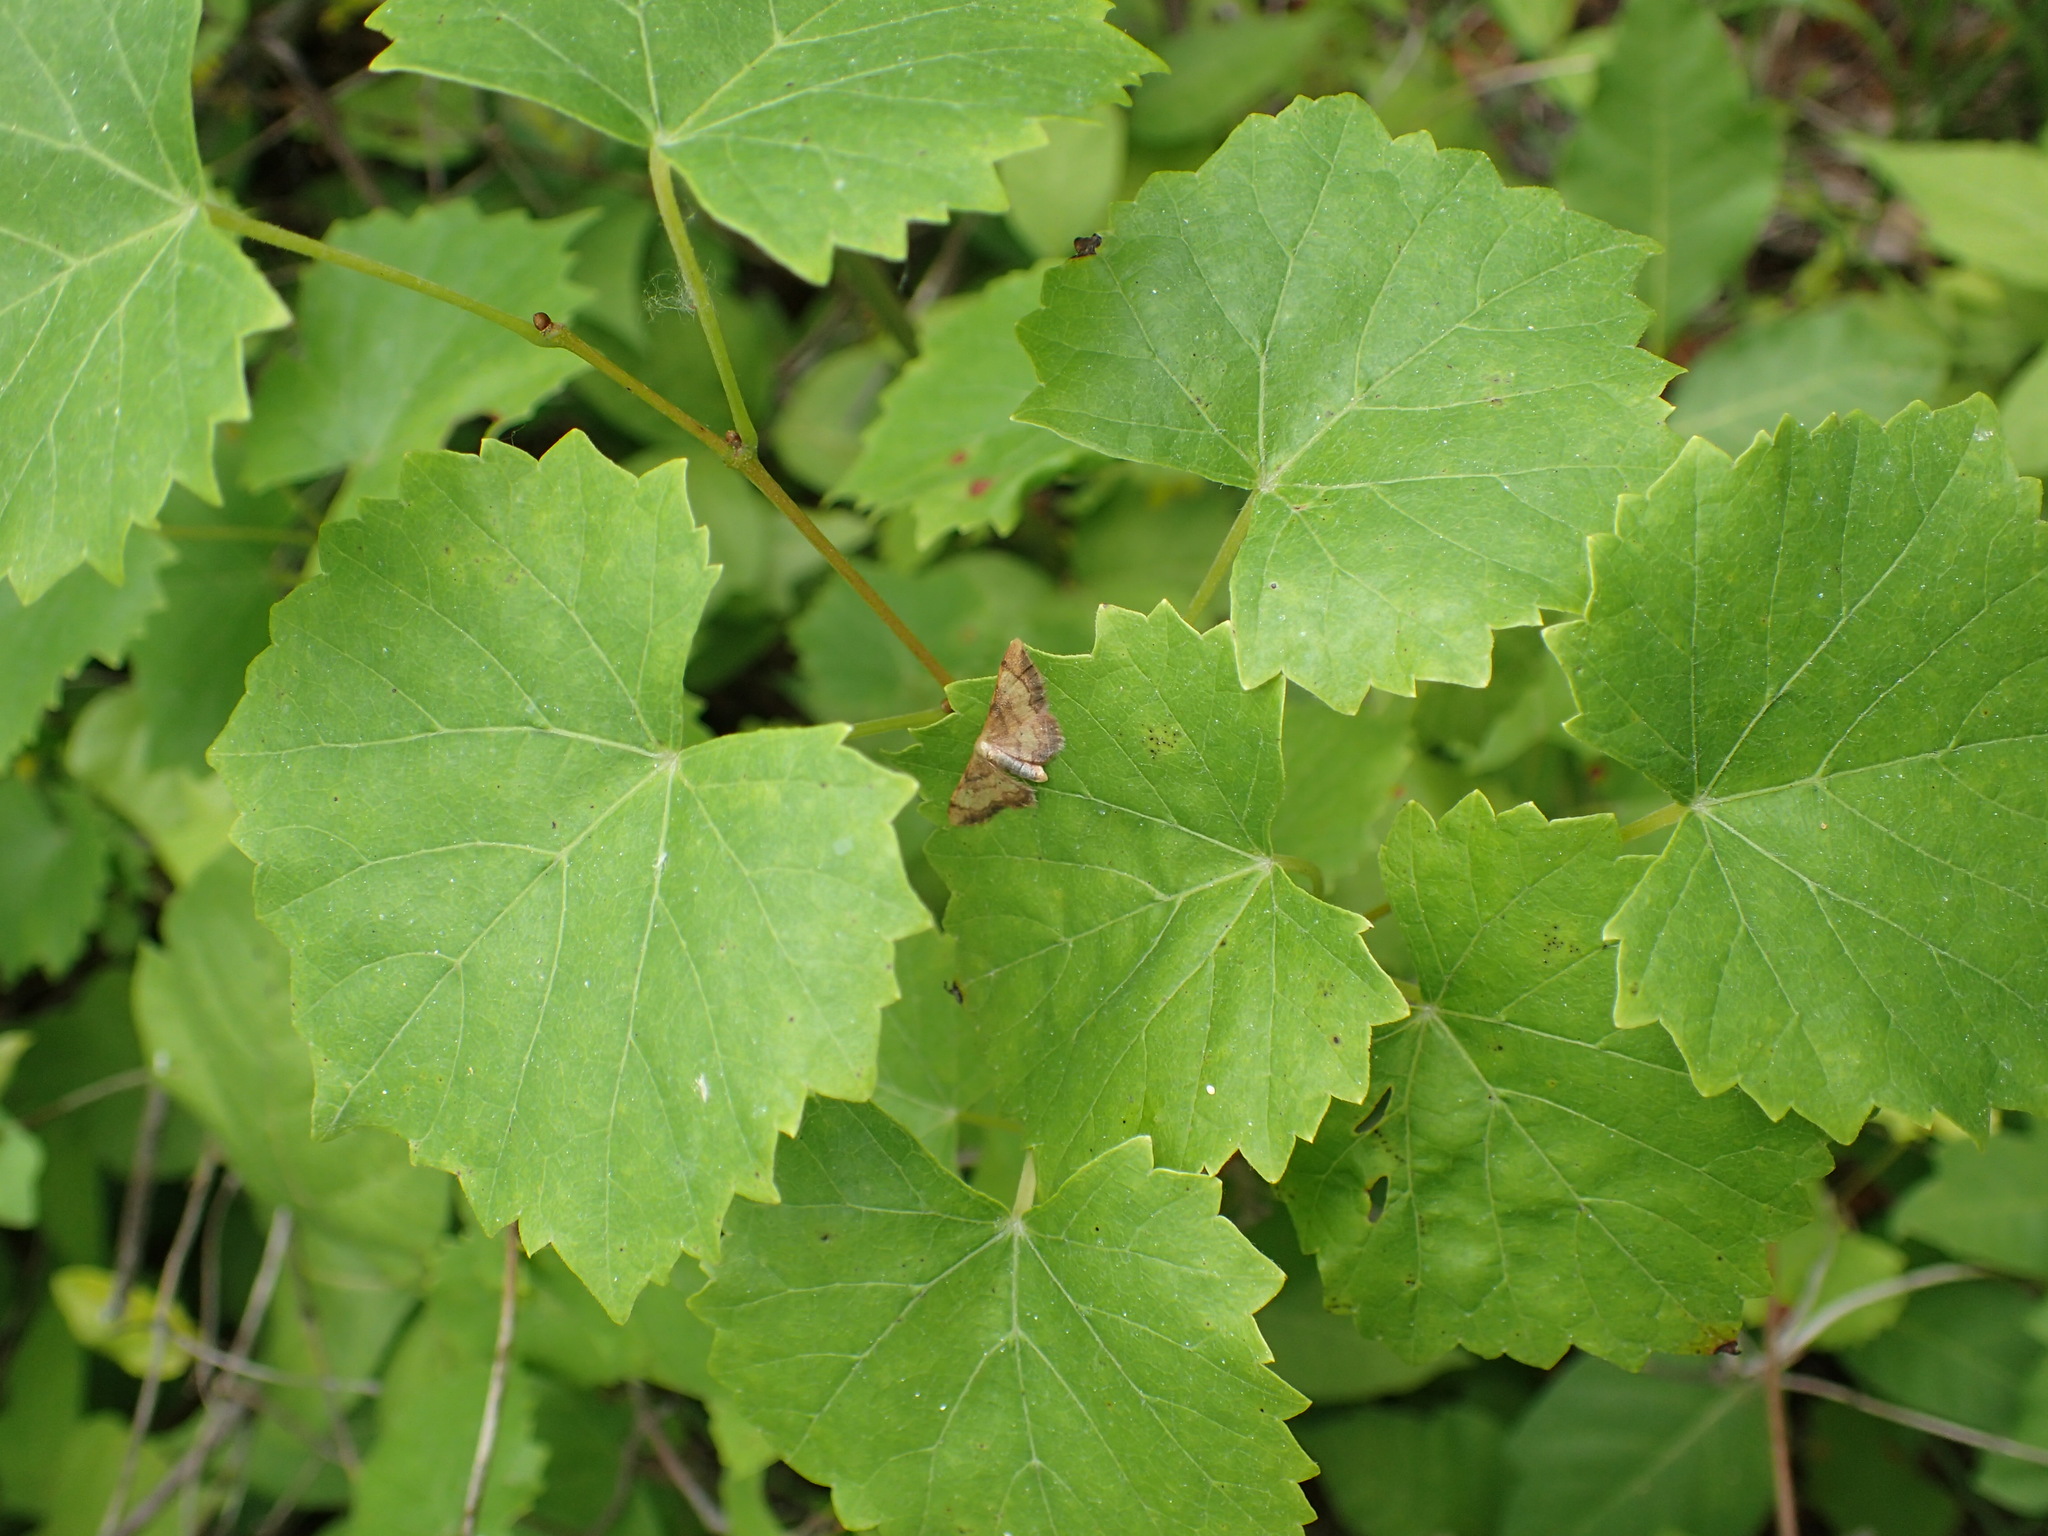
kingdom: Plantae
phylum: Tracheophyta
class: Magnoliopsida
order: Vitales
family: Vitaceae
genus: Vitis
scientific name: Vitis rotundifolia
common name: Muscadine grape
